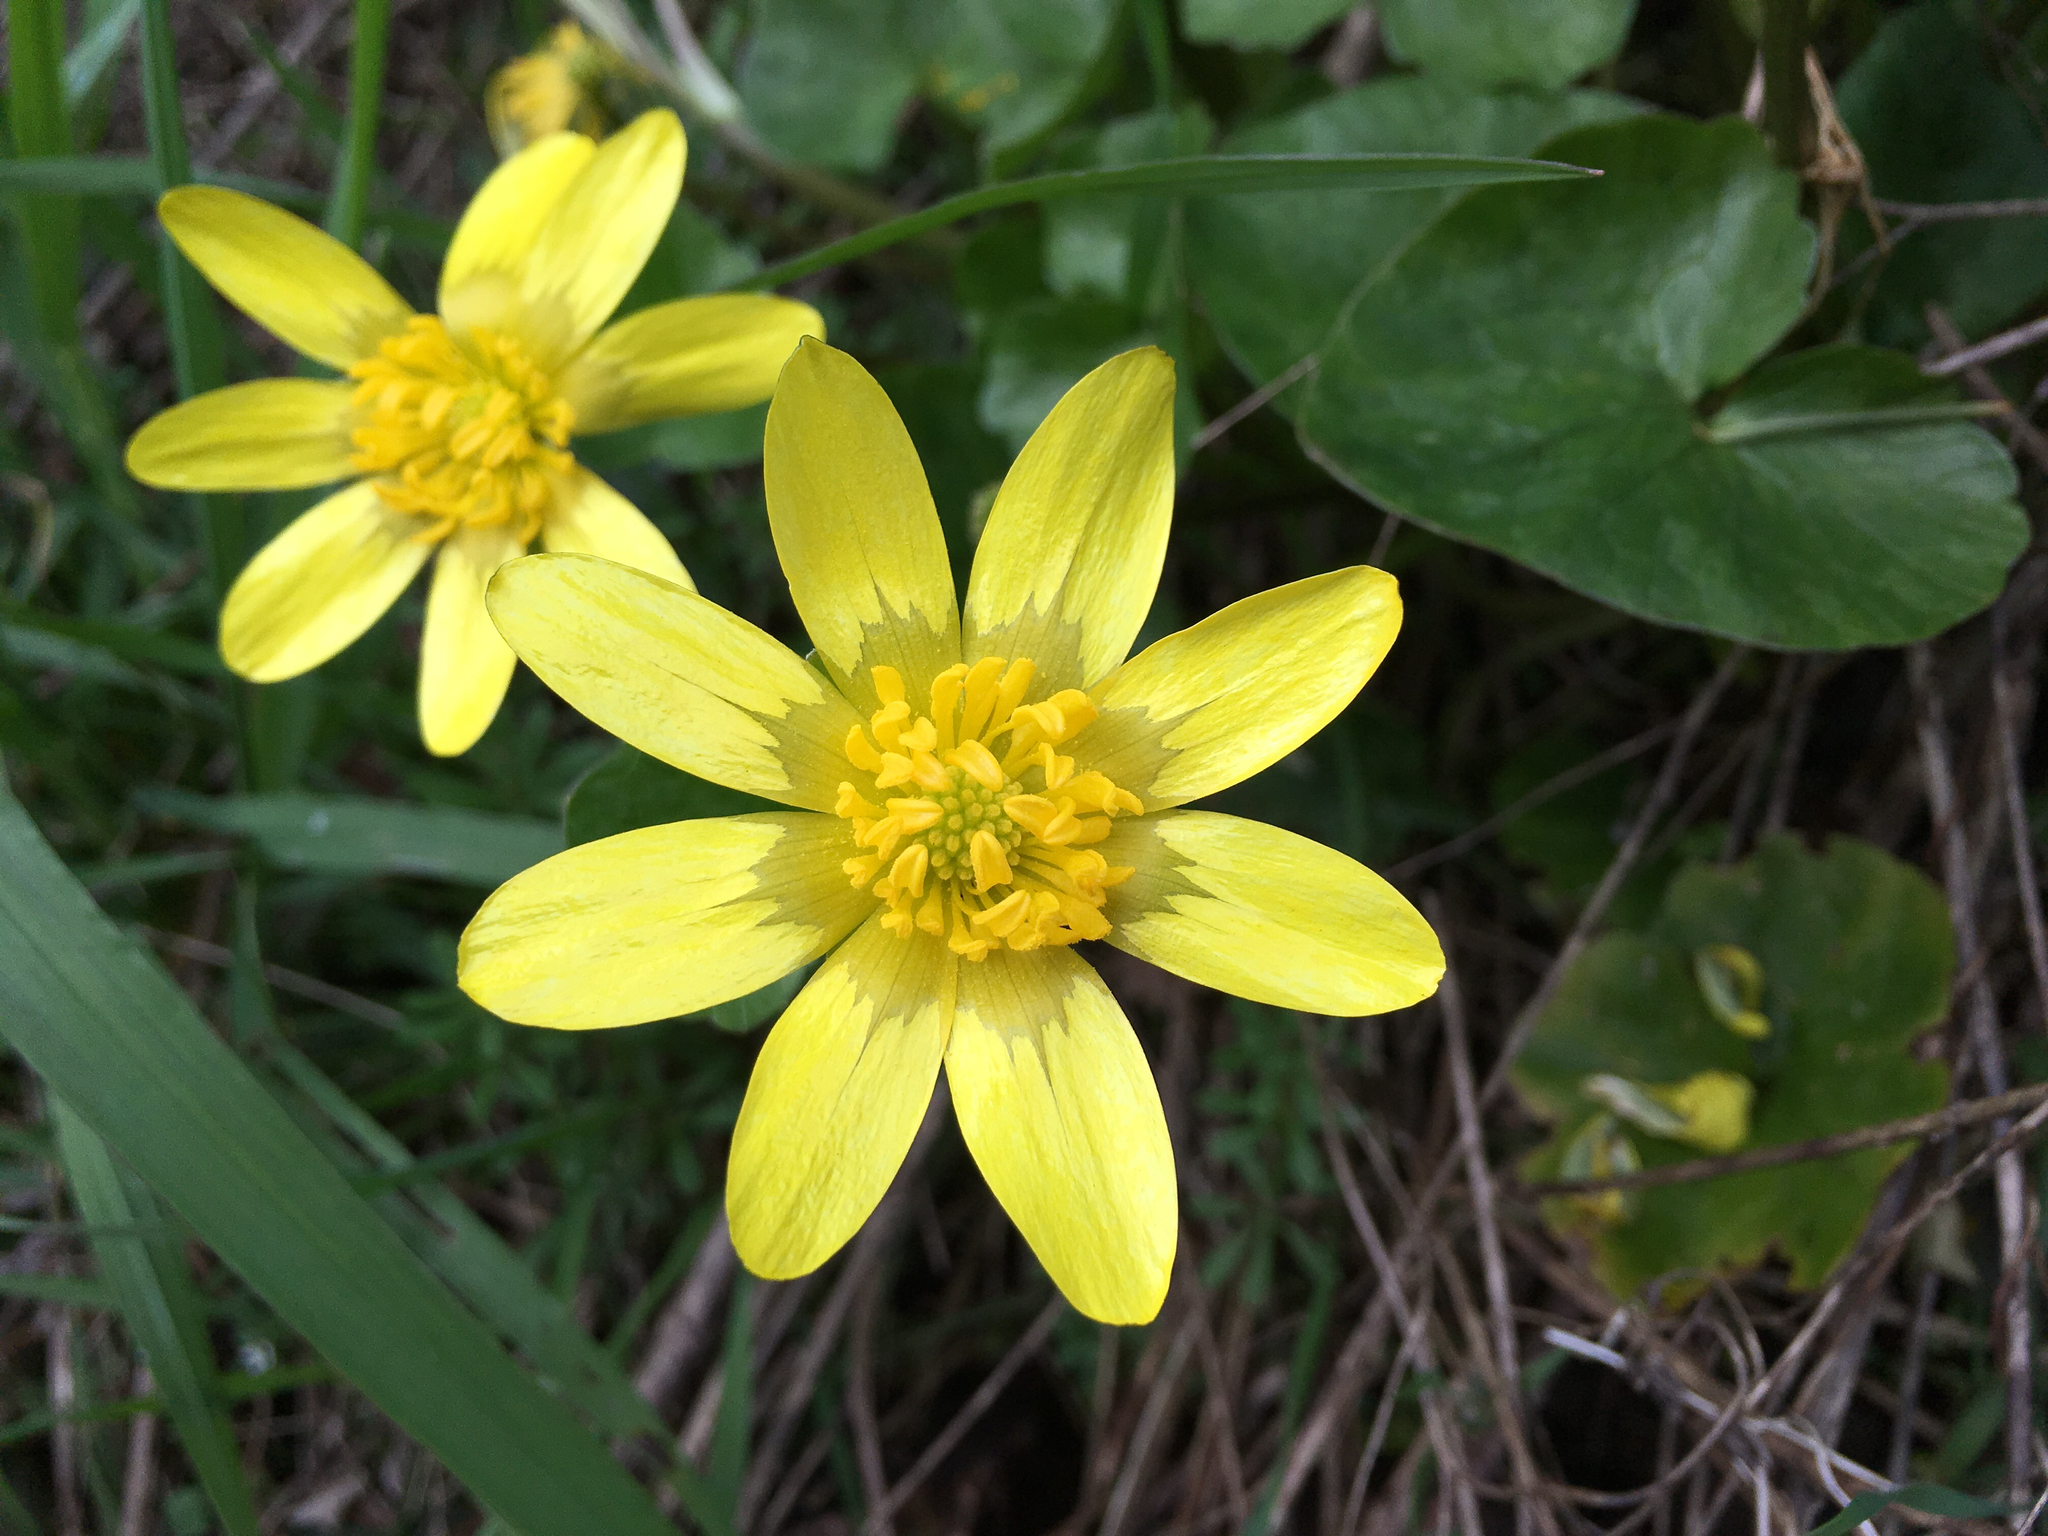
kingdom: Plantae
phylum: Tracheophyta
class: Magnoliopsida
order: Ranunculales
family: Ranunculaceae
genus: Ficaria
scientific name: Ficaria verna
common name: Lesser celandine
